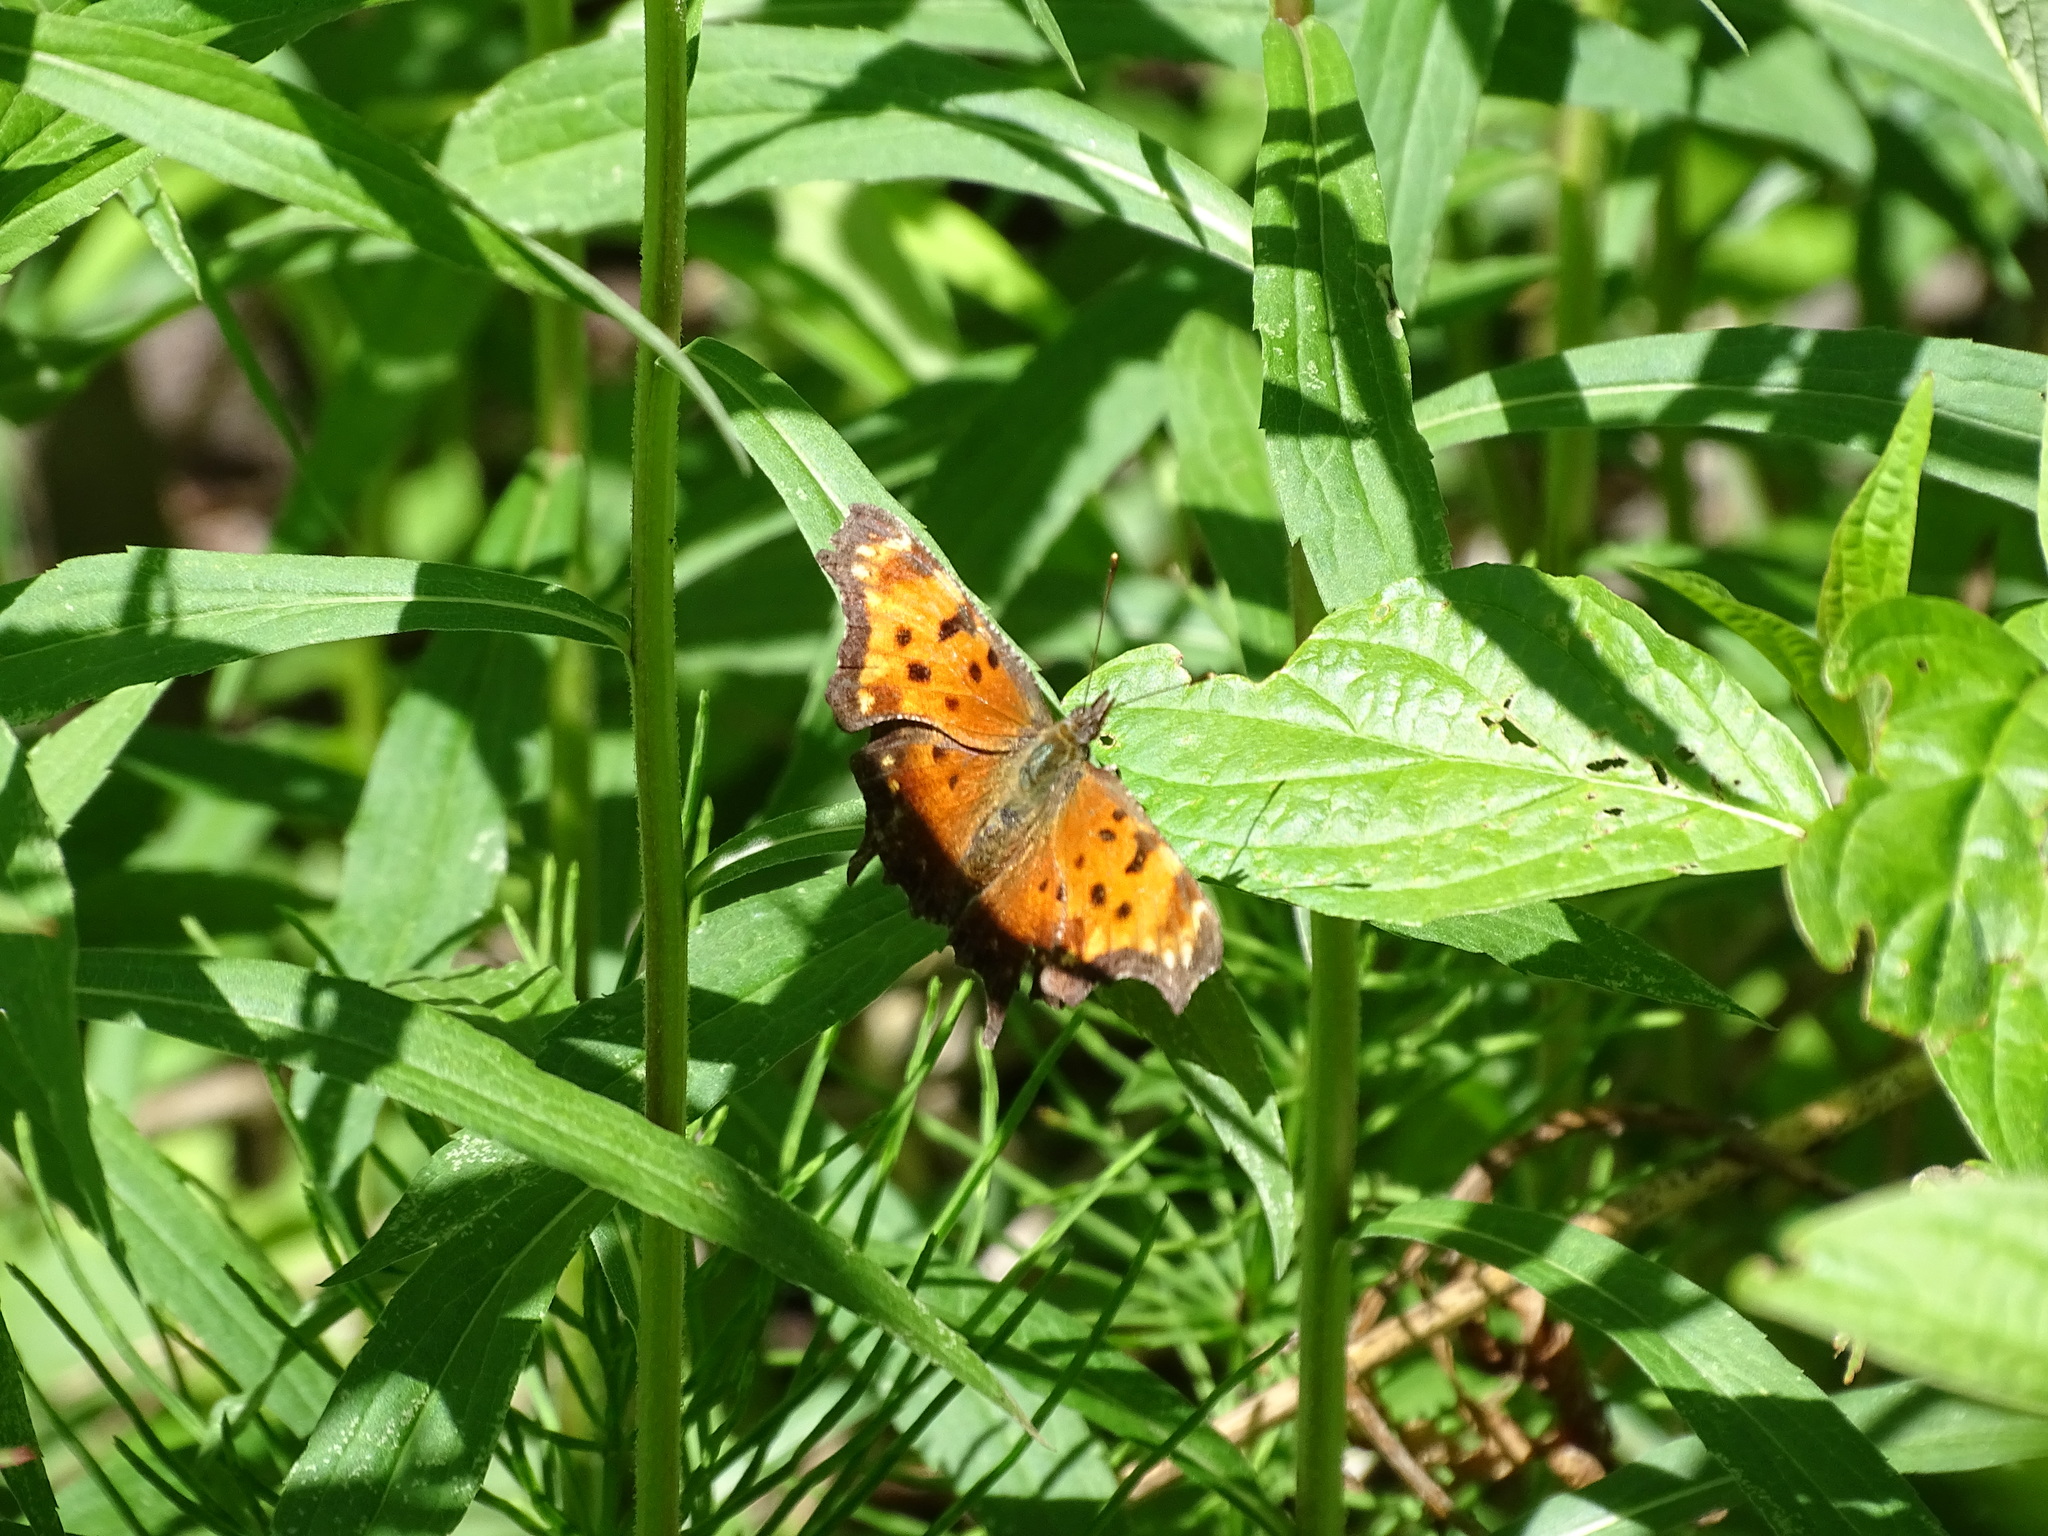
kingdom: Animalia
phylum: Arthropoda
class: Insecta
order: Lepidoptera
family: Nymphalidae
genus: Polygonia
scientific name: Polygonia progne
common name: Gray comma
